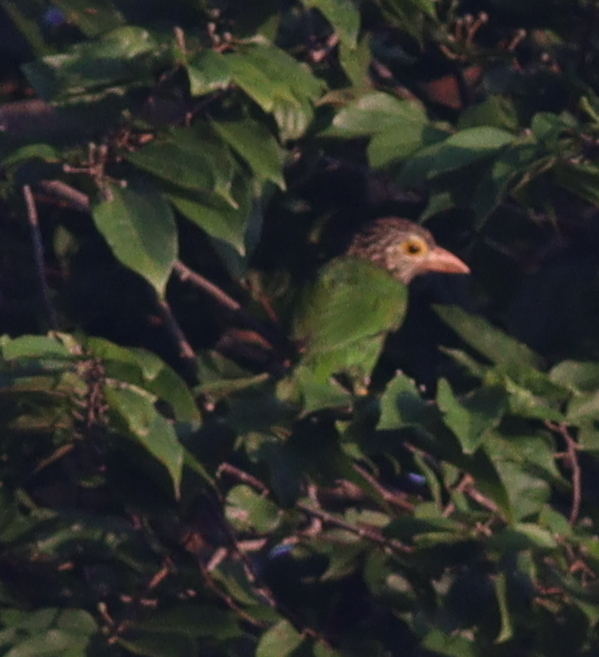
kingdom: Animalia
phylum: Chordata
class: Aves
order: Piciformes
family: Megalaimidae
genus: Psilopogon
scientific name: Psilopogon lineatus
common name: Lineated barbet
